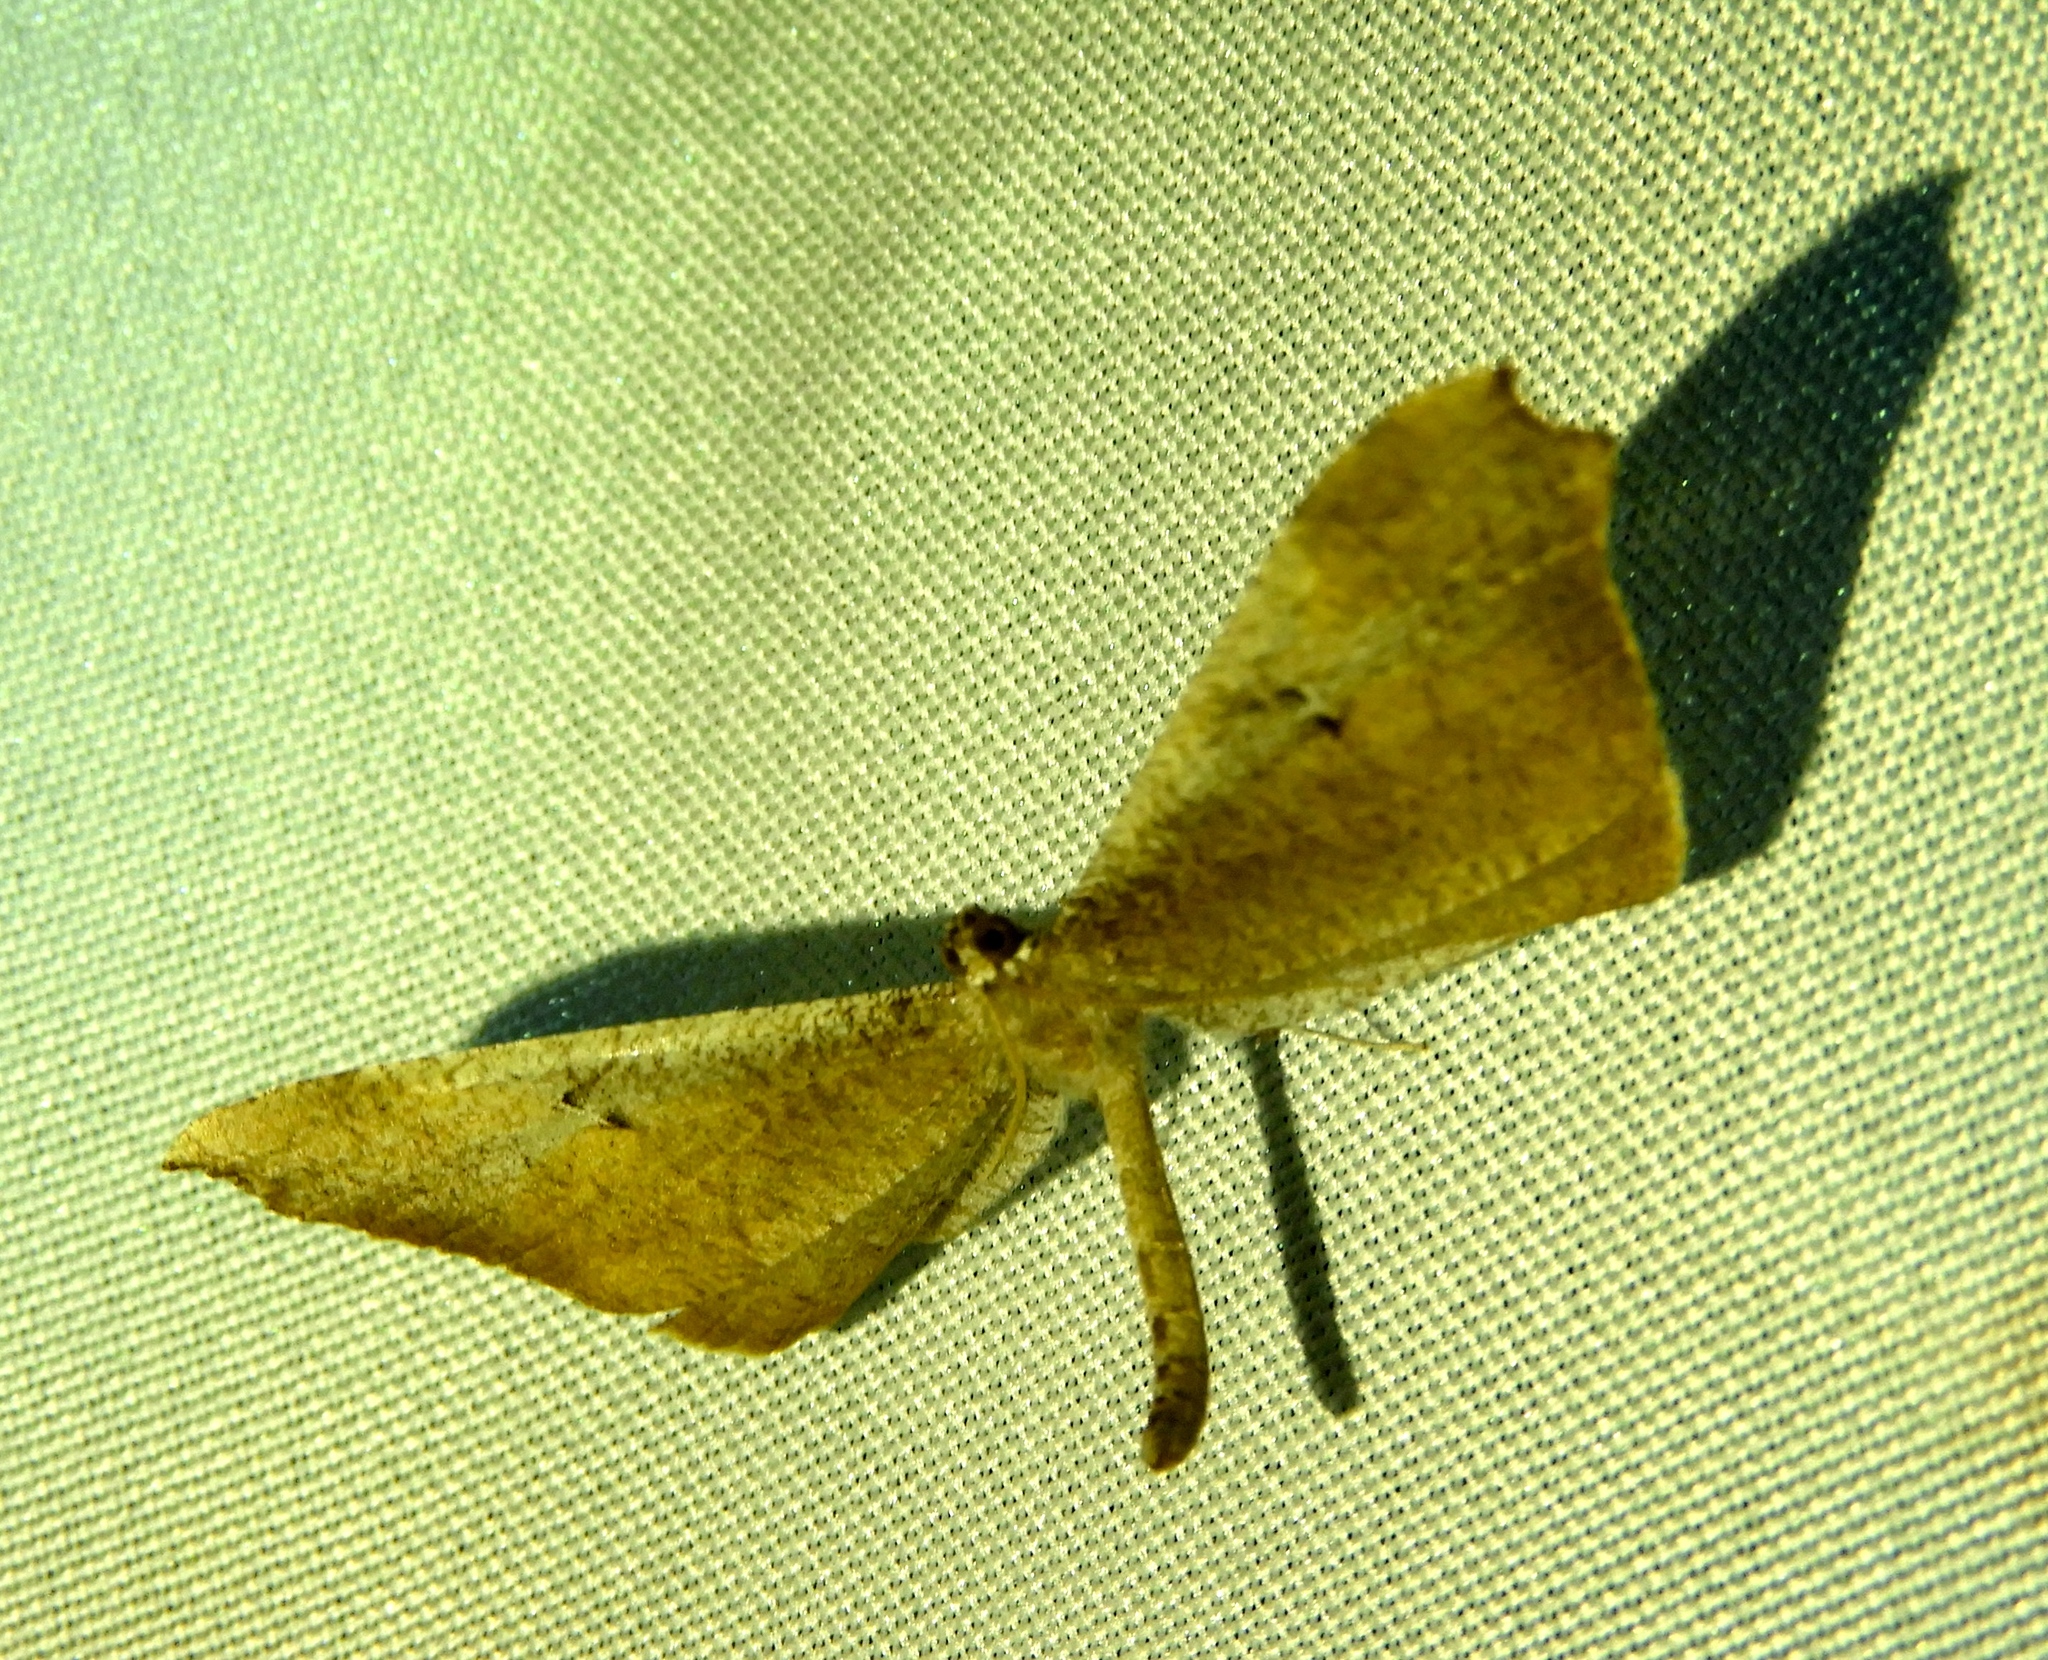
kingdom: Animalia
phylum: Arthropoda
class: Insecta
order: Lepidoptera
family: Hedylidae
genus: Macrosoma
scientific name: Macrosoma rubedinaria
